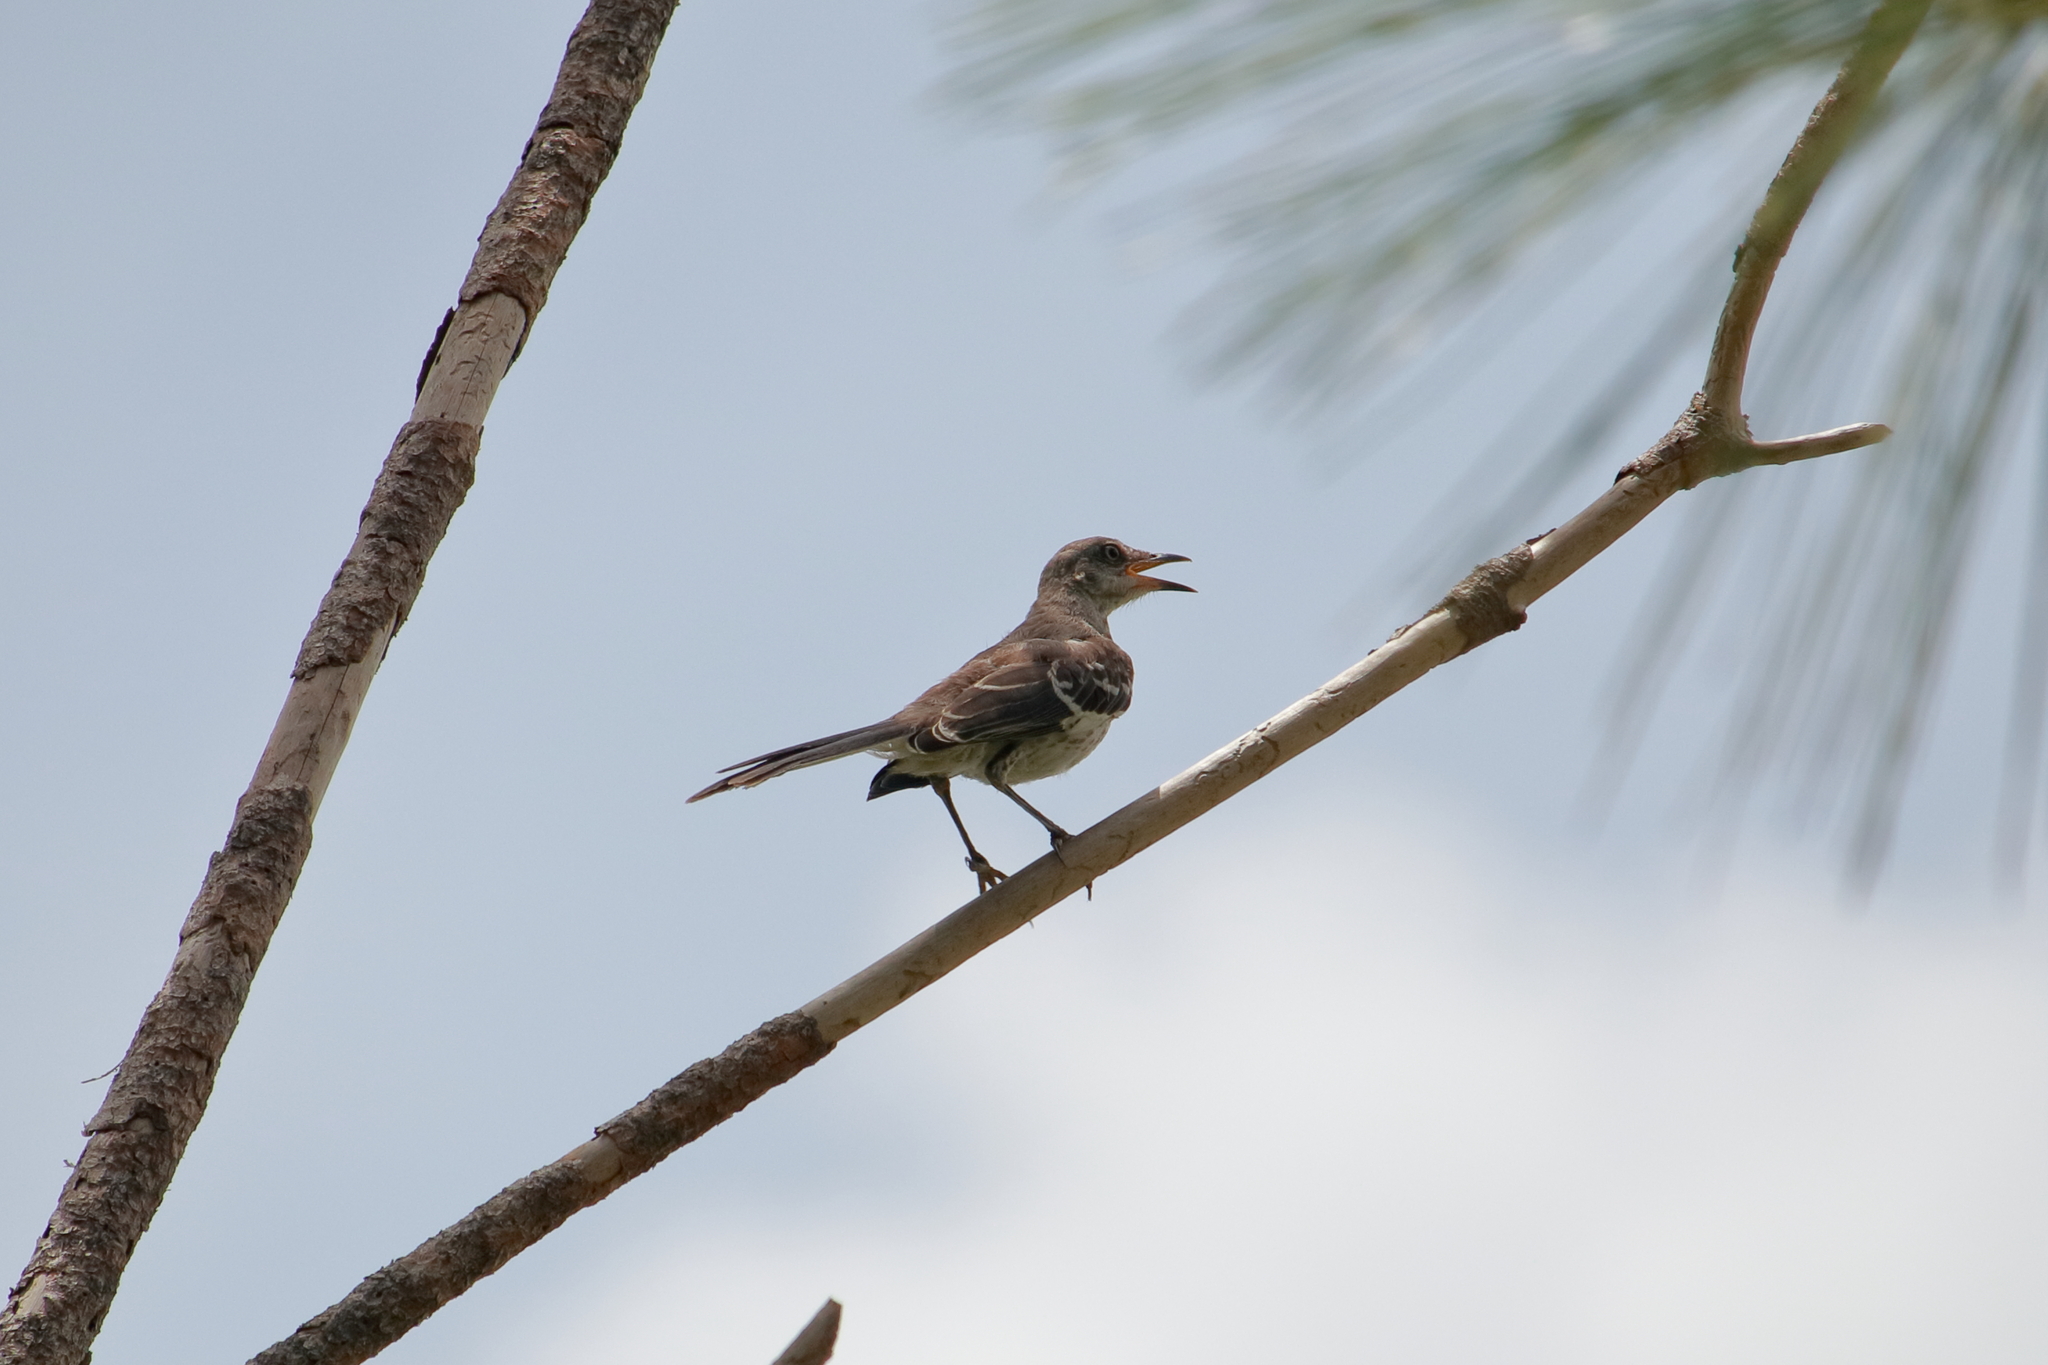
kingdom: Animalia
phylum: Chordata
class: Aves
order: Passeriformes
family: Mimidae
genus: Mimus
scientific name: Mimus polyglottos
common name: Northern mockingbird
